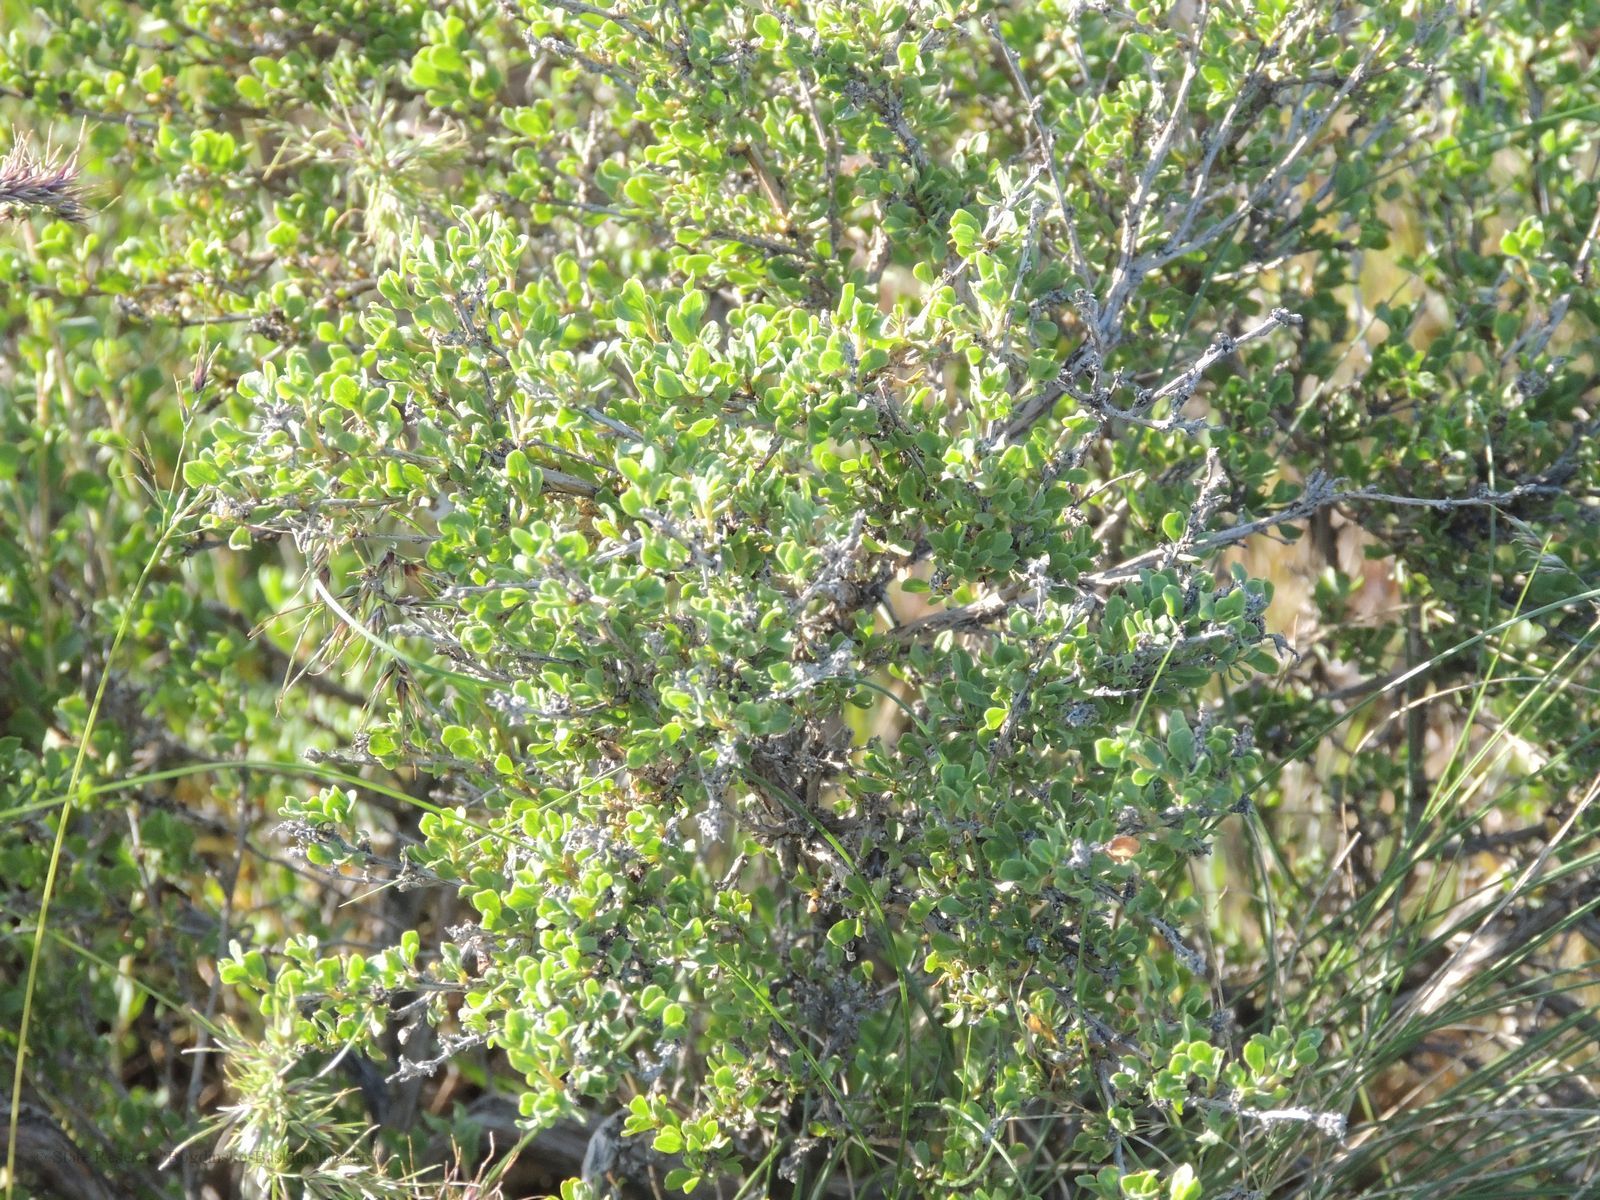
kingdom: Plantae
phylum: Tracheophyta
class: Magnoliopsida
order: Caryophyllales
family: Polygonaceae
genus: Atraphaxis
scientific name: Atraphaxis replicata
